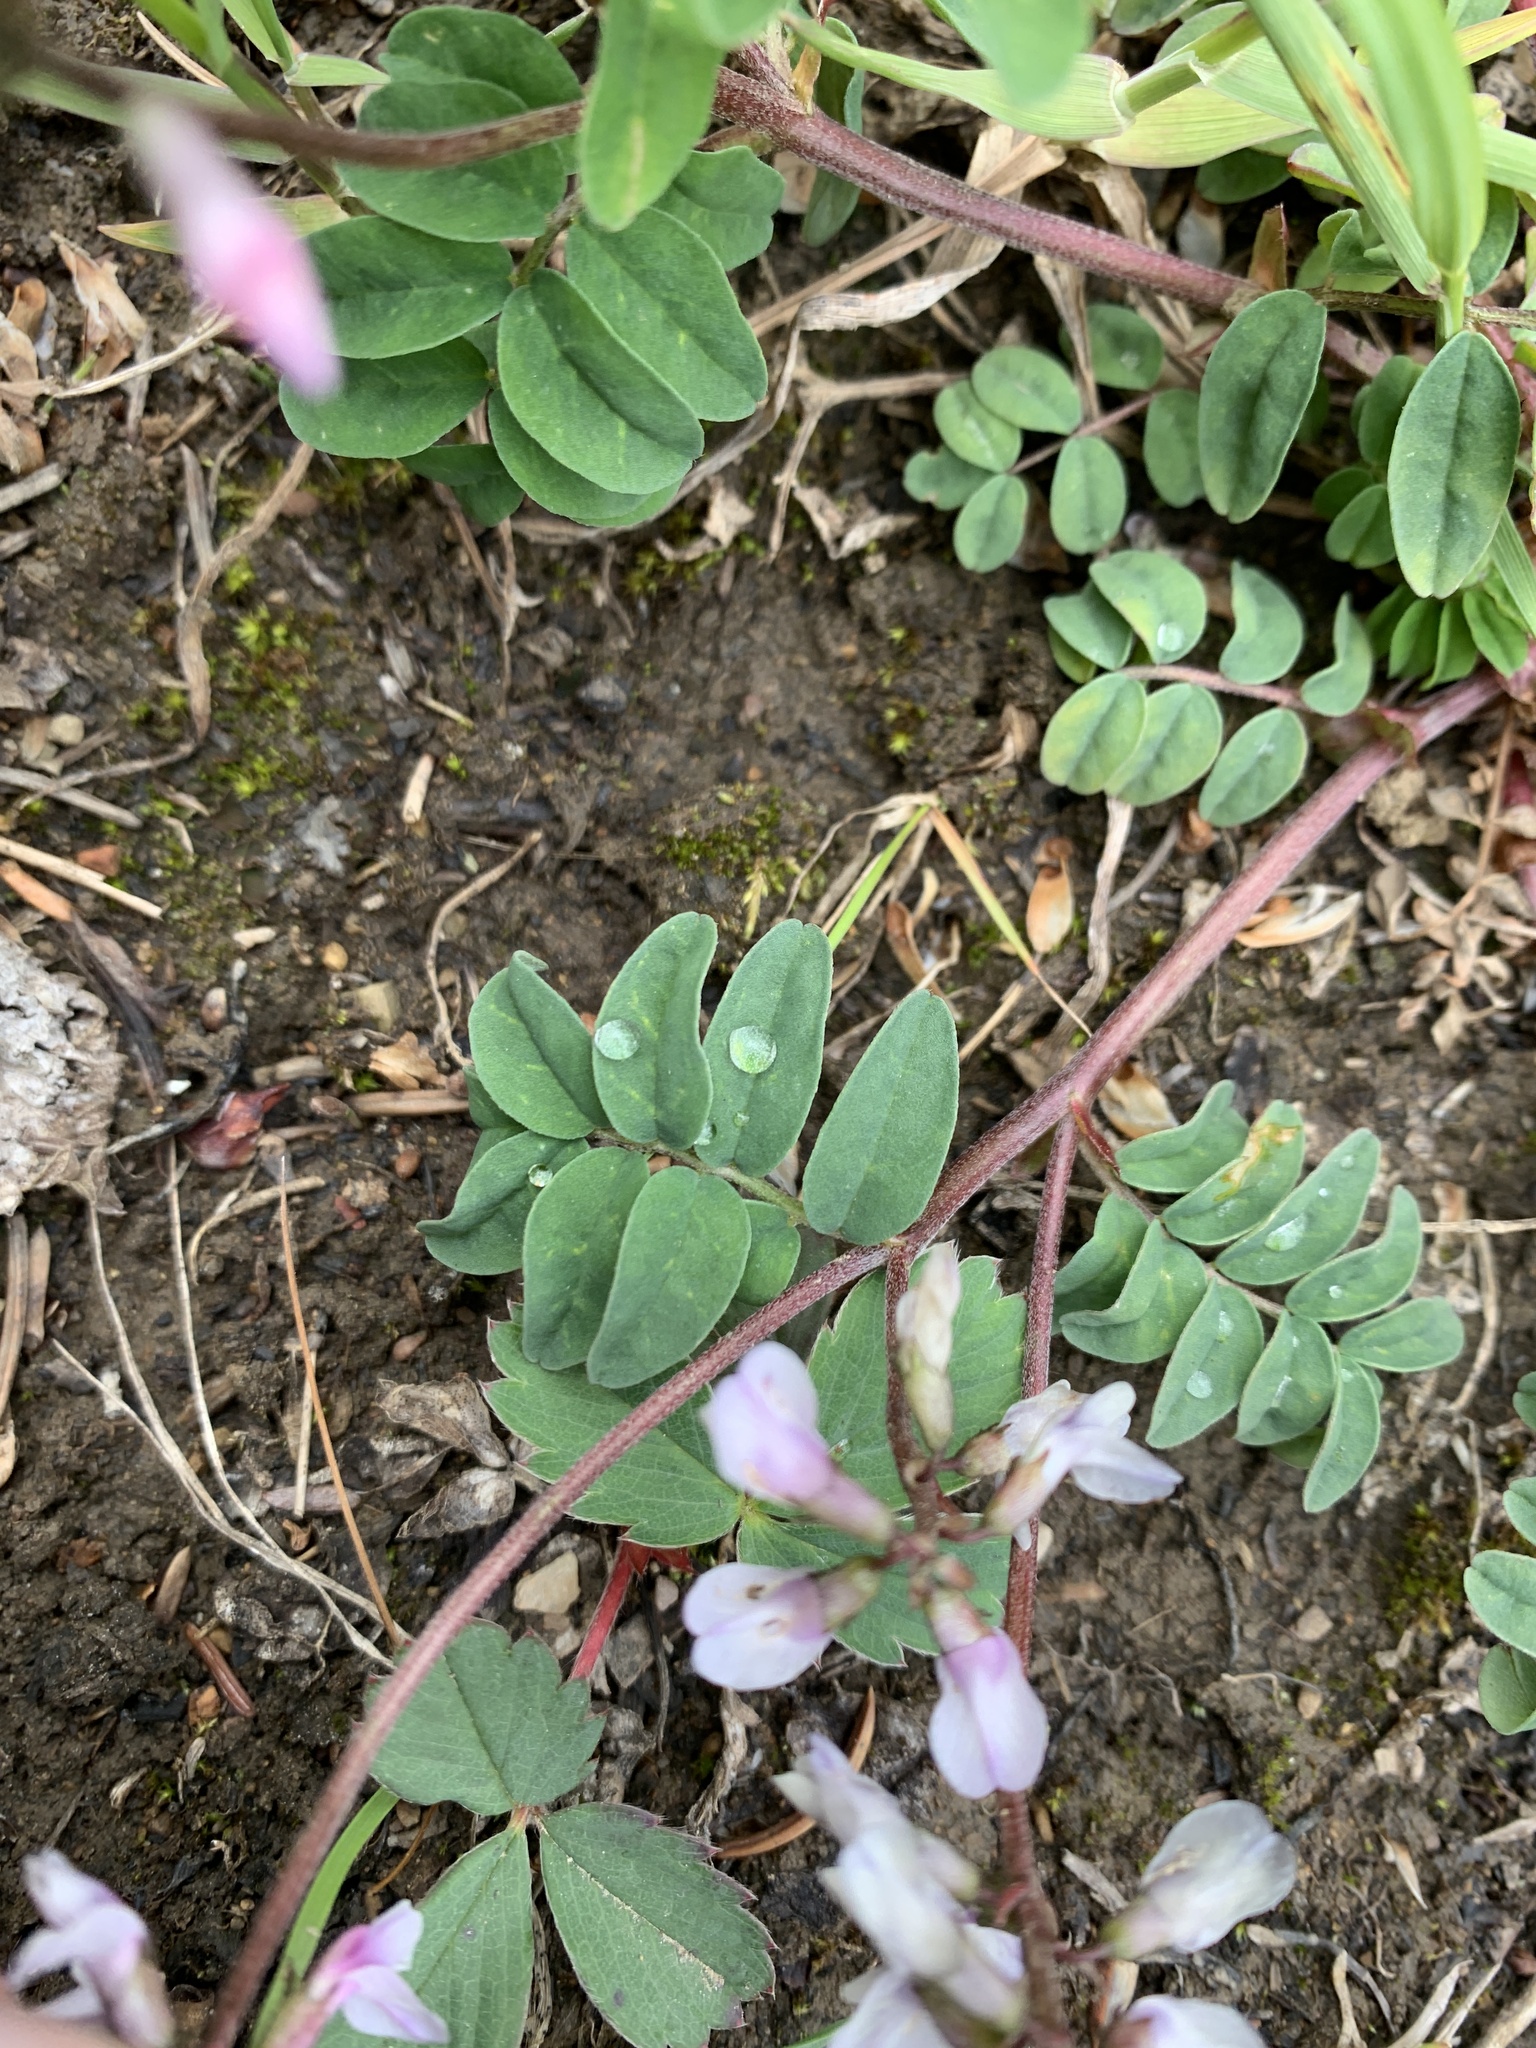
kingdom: Plantae
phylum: Tracheophyta
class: Magnoliopsida
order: Fabales
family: Fabaceae
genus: Astragalus
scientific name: Astragalus alpinus
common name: Alpine milk-vetch
